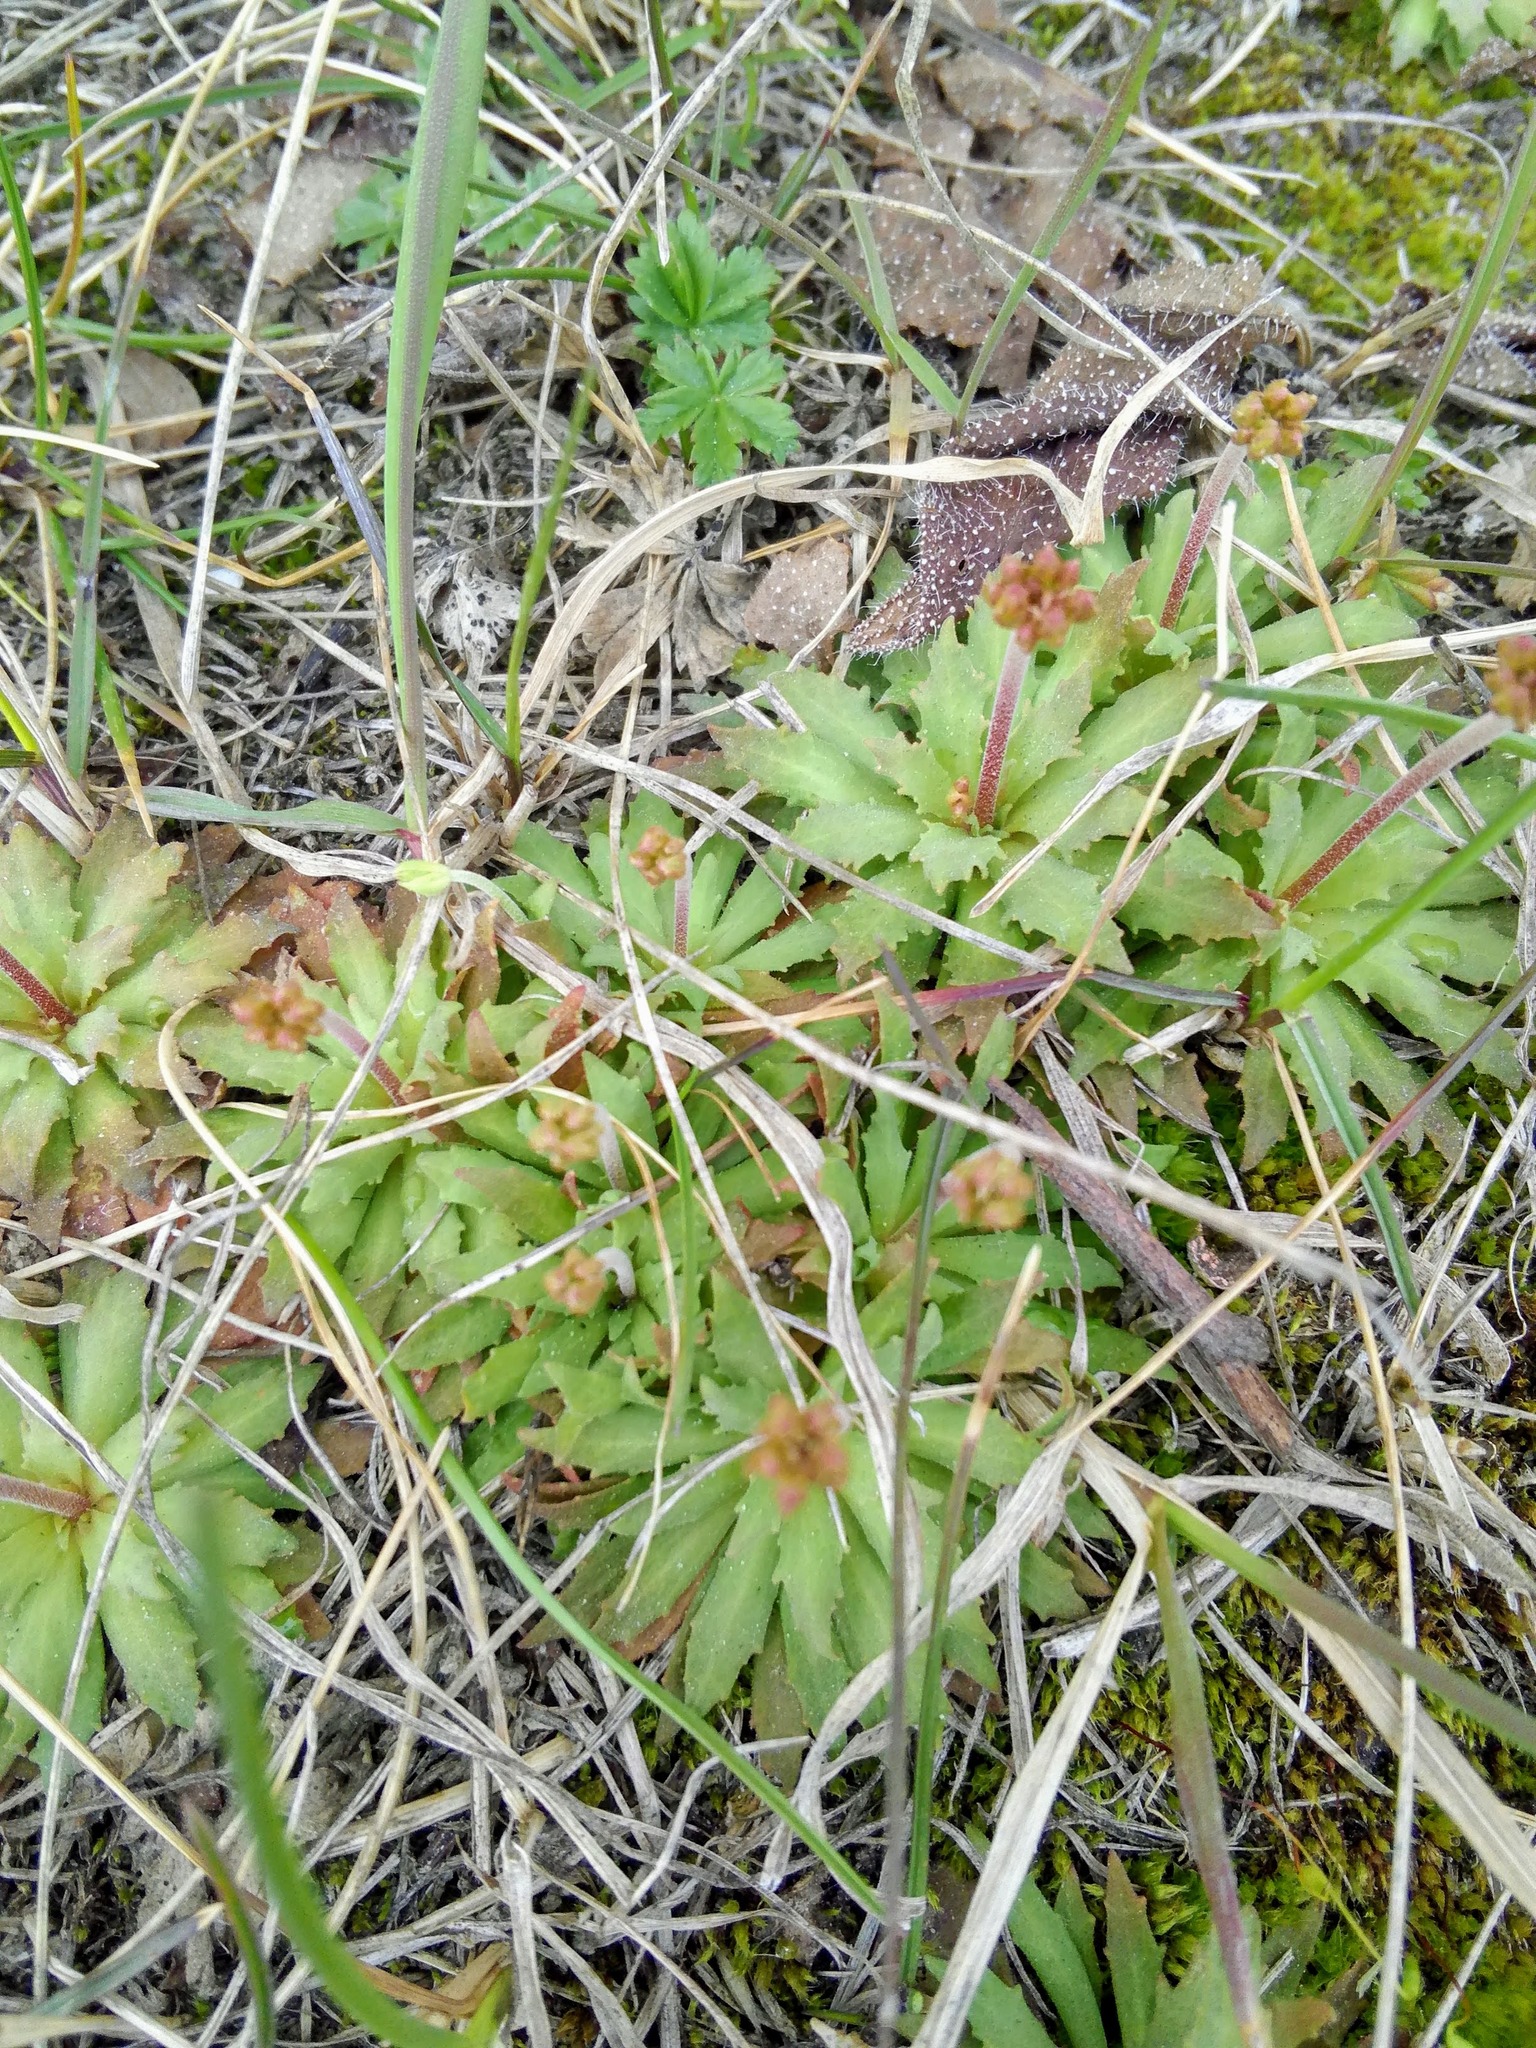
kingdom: Plantae
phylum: Tracheophyta
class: Magnoliopsida
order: Ericales
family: Primulaceae
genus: Androsace
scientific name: Androsace septentrionalis
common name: Hairy northern fairy-candelabra
